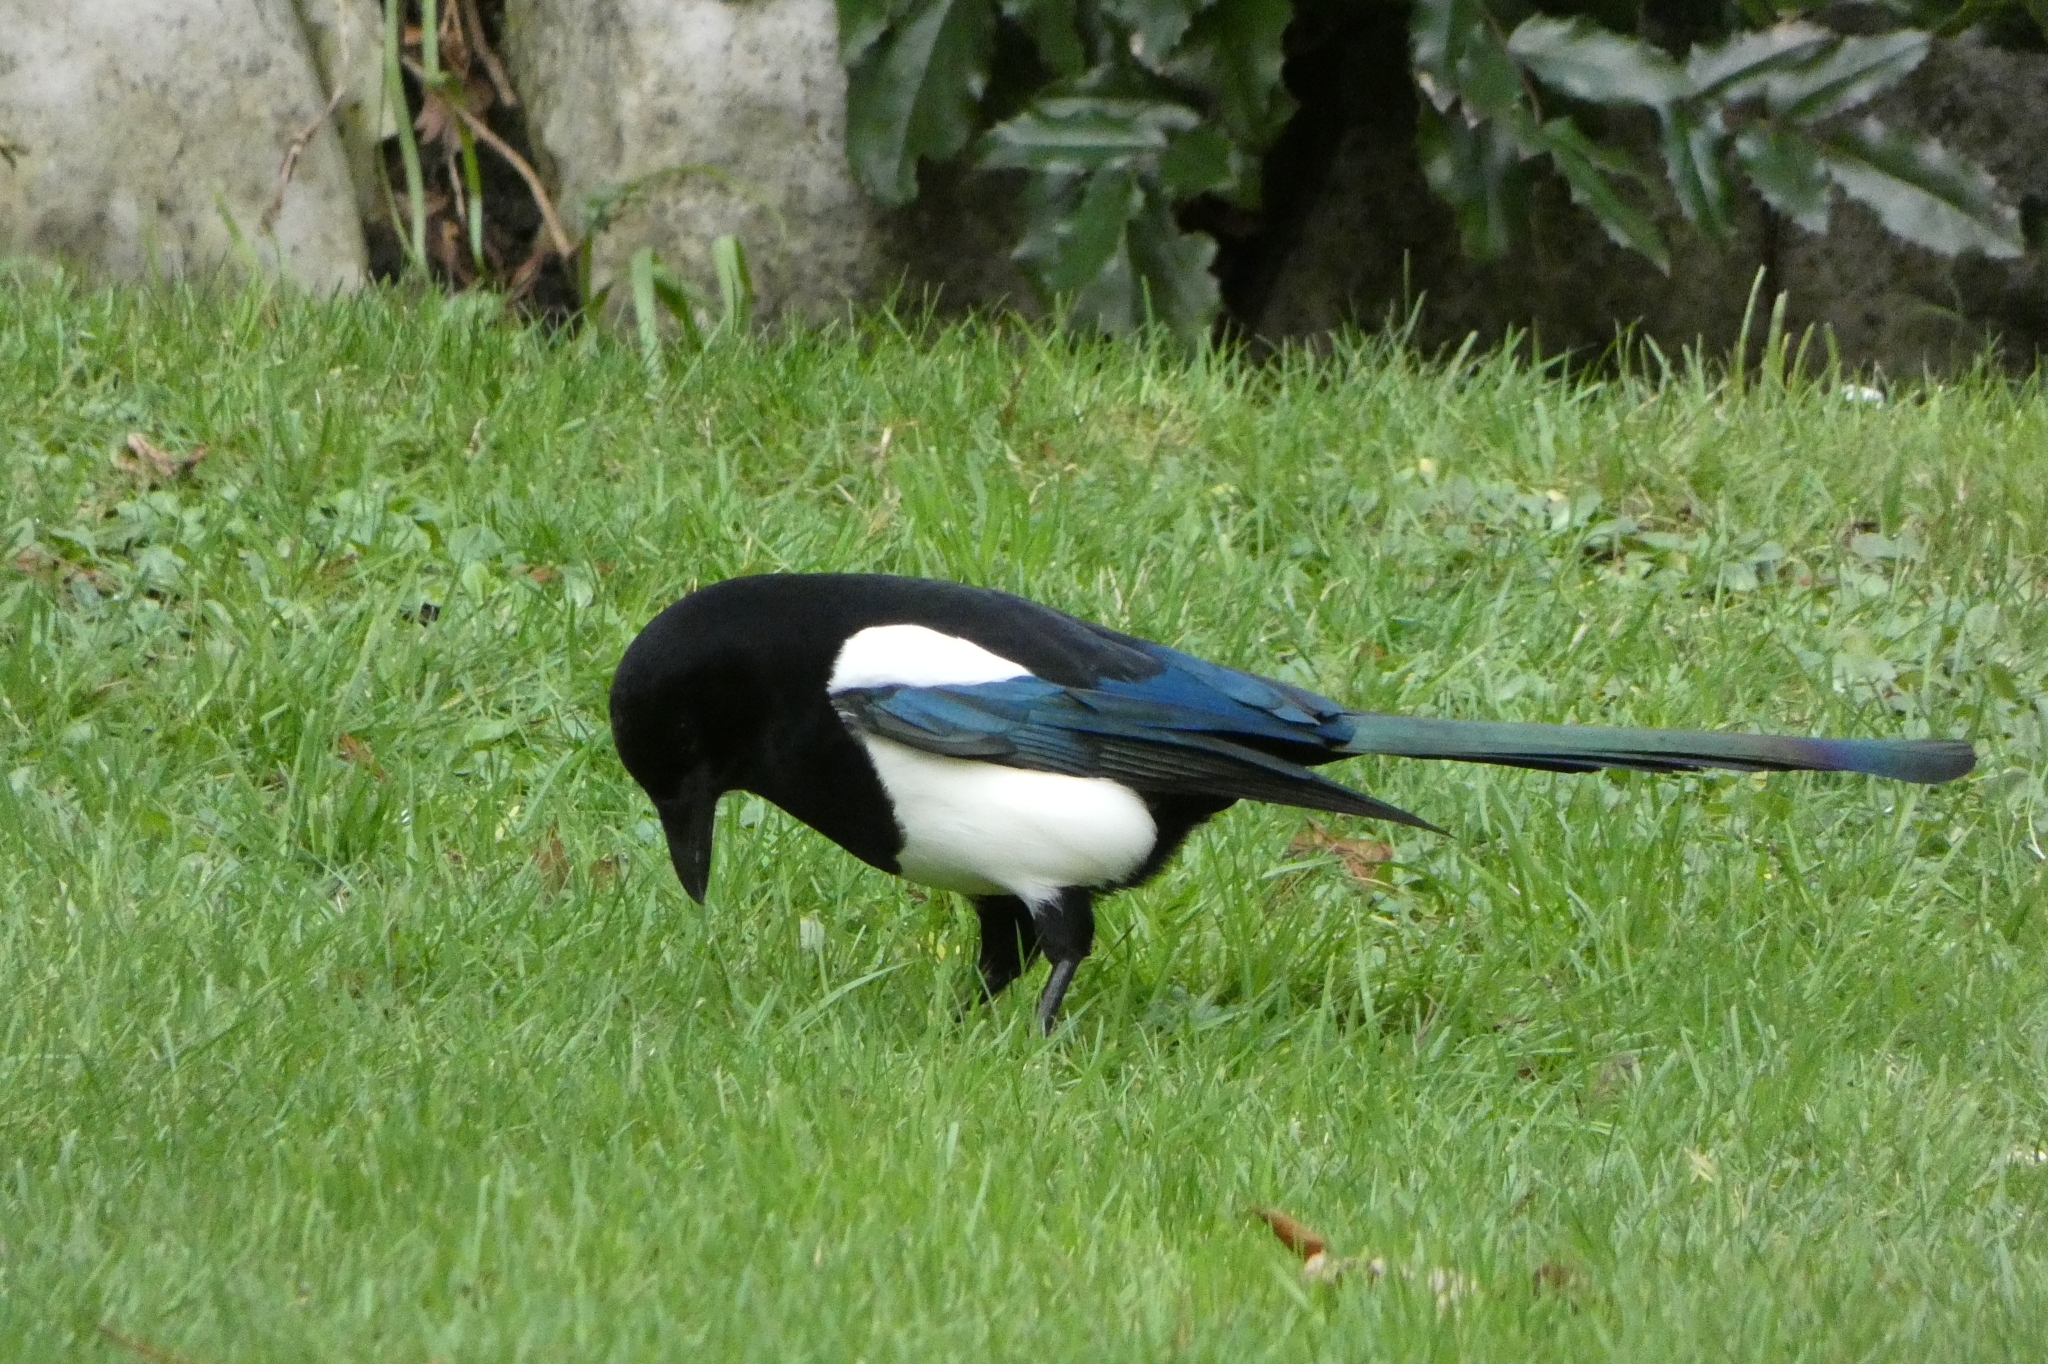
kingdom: Animalia
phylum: Chordata
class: Aves
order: Passeriformes
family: Corvidae
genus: Pica
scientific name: Pica pica
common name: Eurasian magpie
